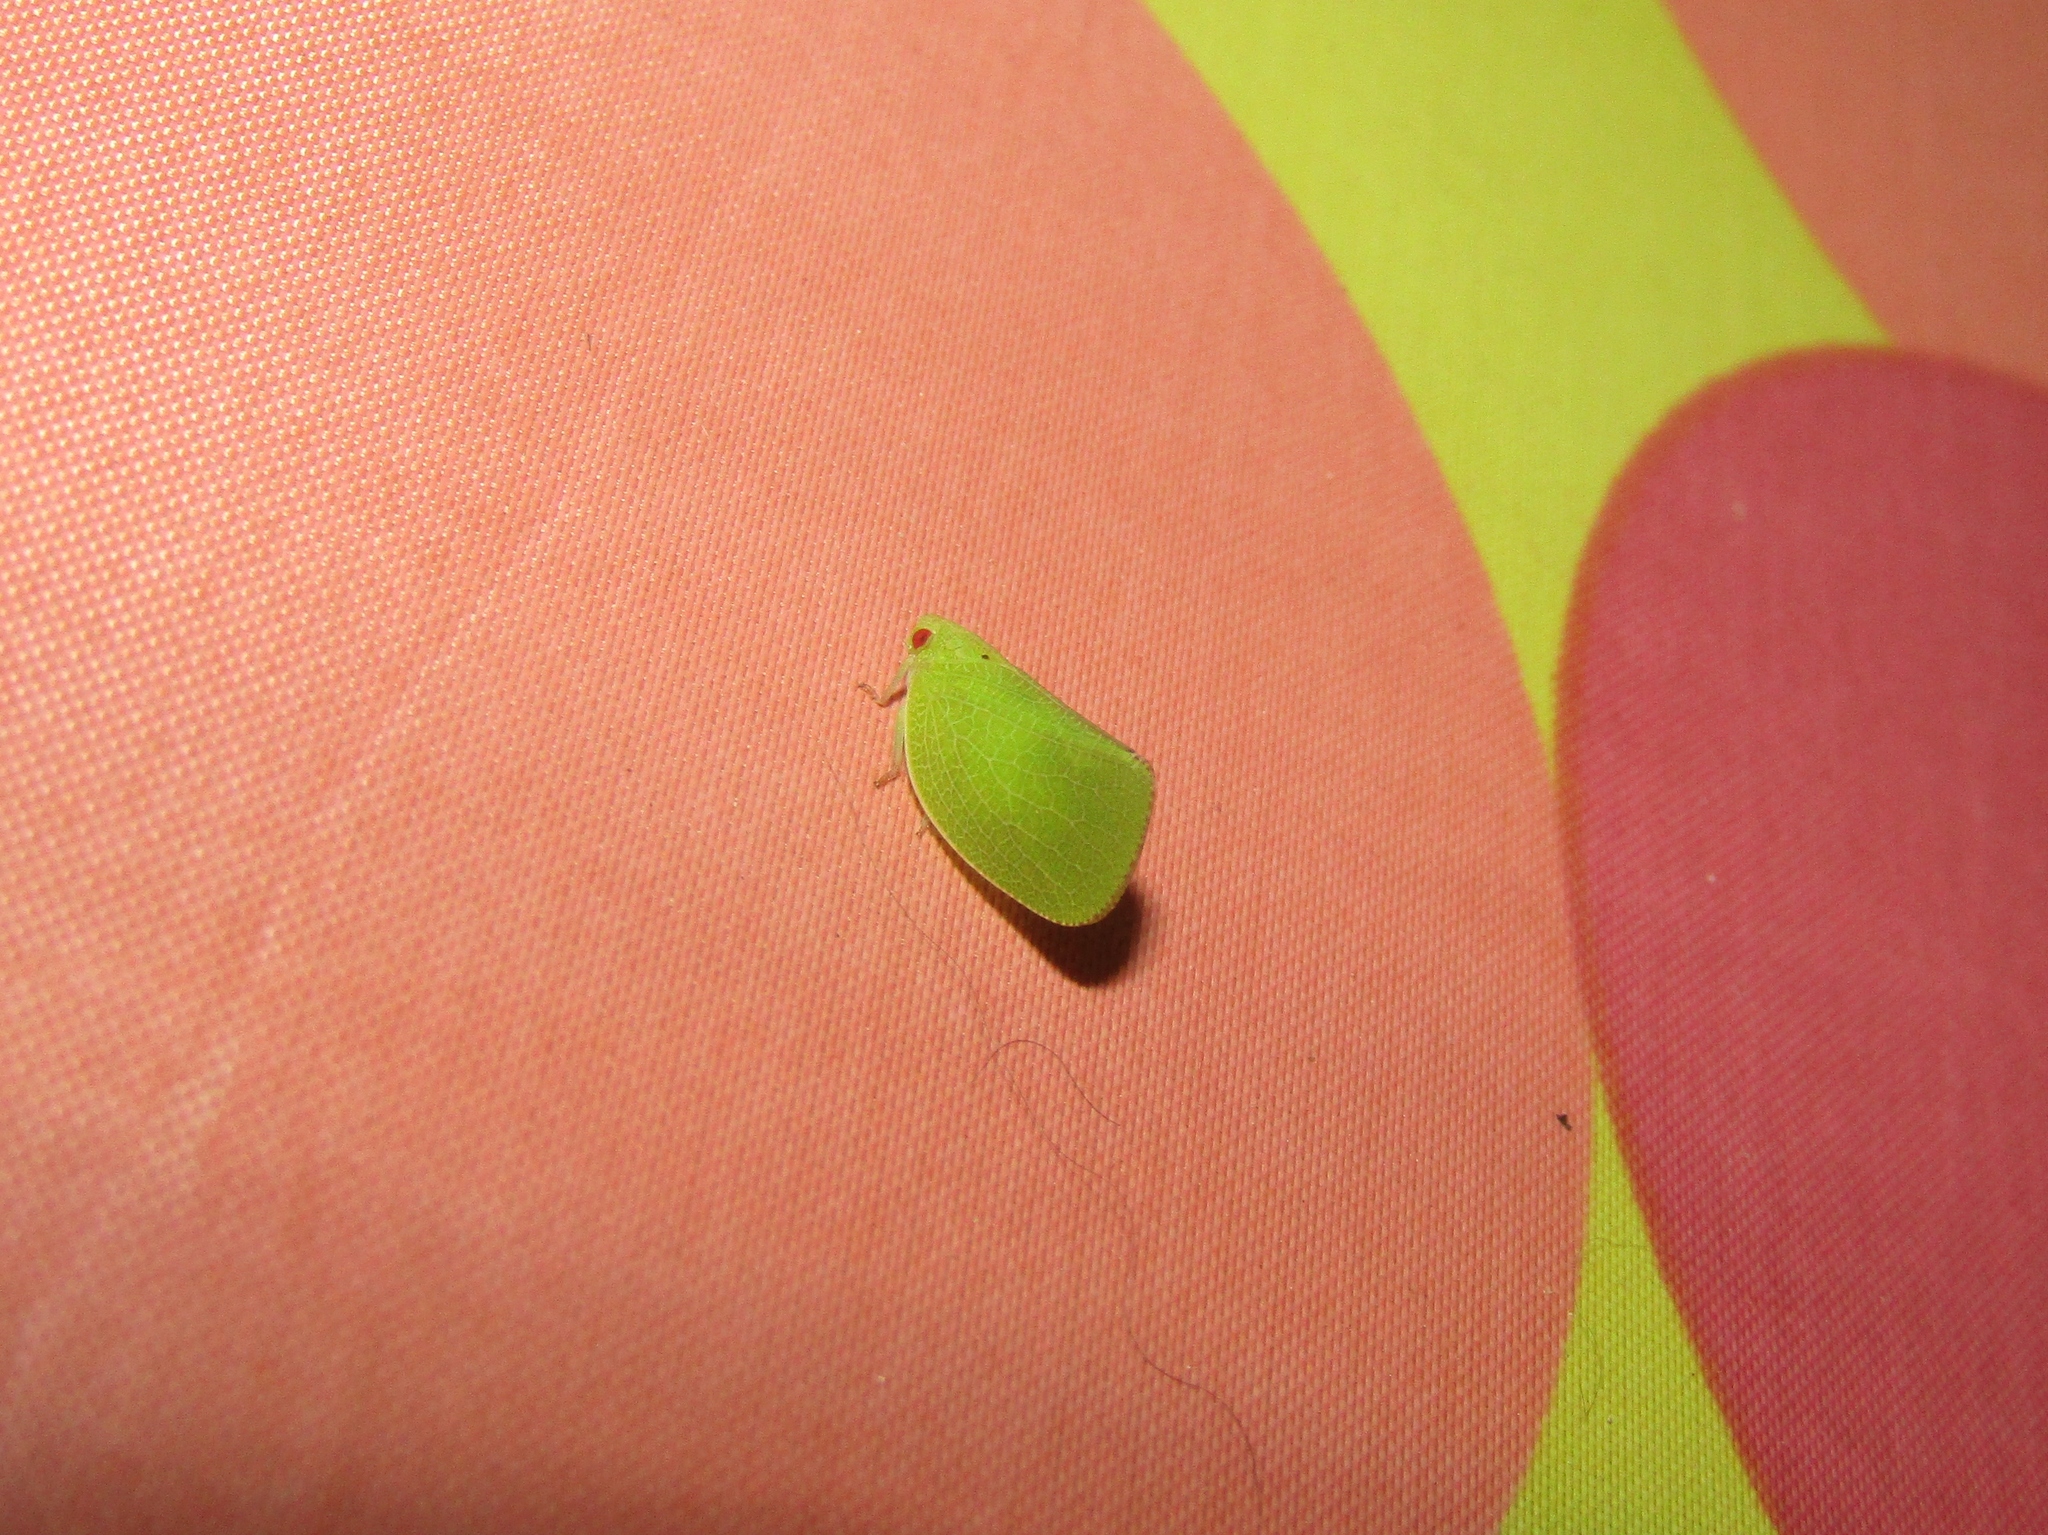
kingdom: Animalia
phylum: Arthropoda
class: Insecta
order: Hemiptera
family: Acanaloniidae
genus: Acanalonia
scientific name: Acanalonia conica
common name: Green cone-headed planthopper
